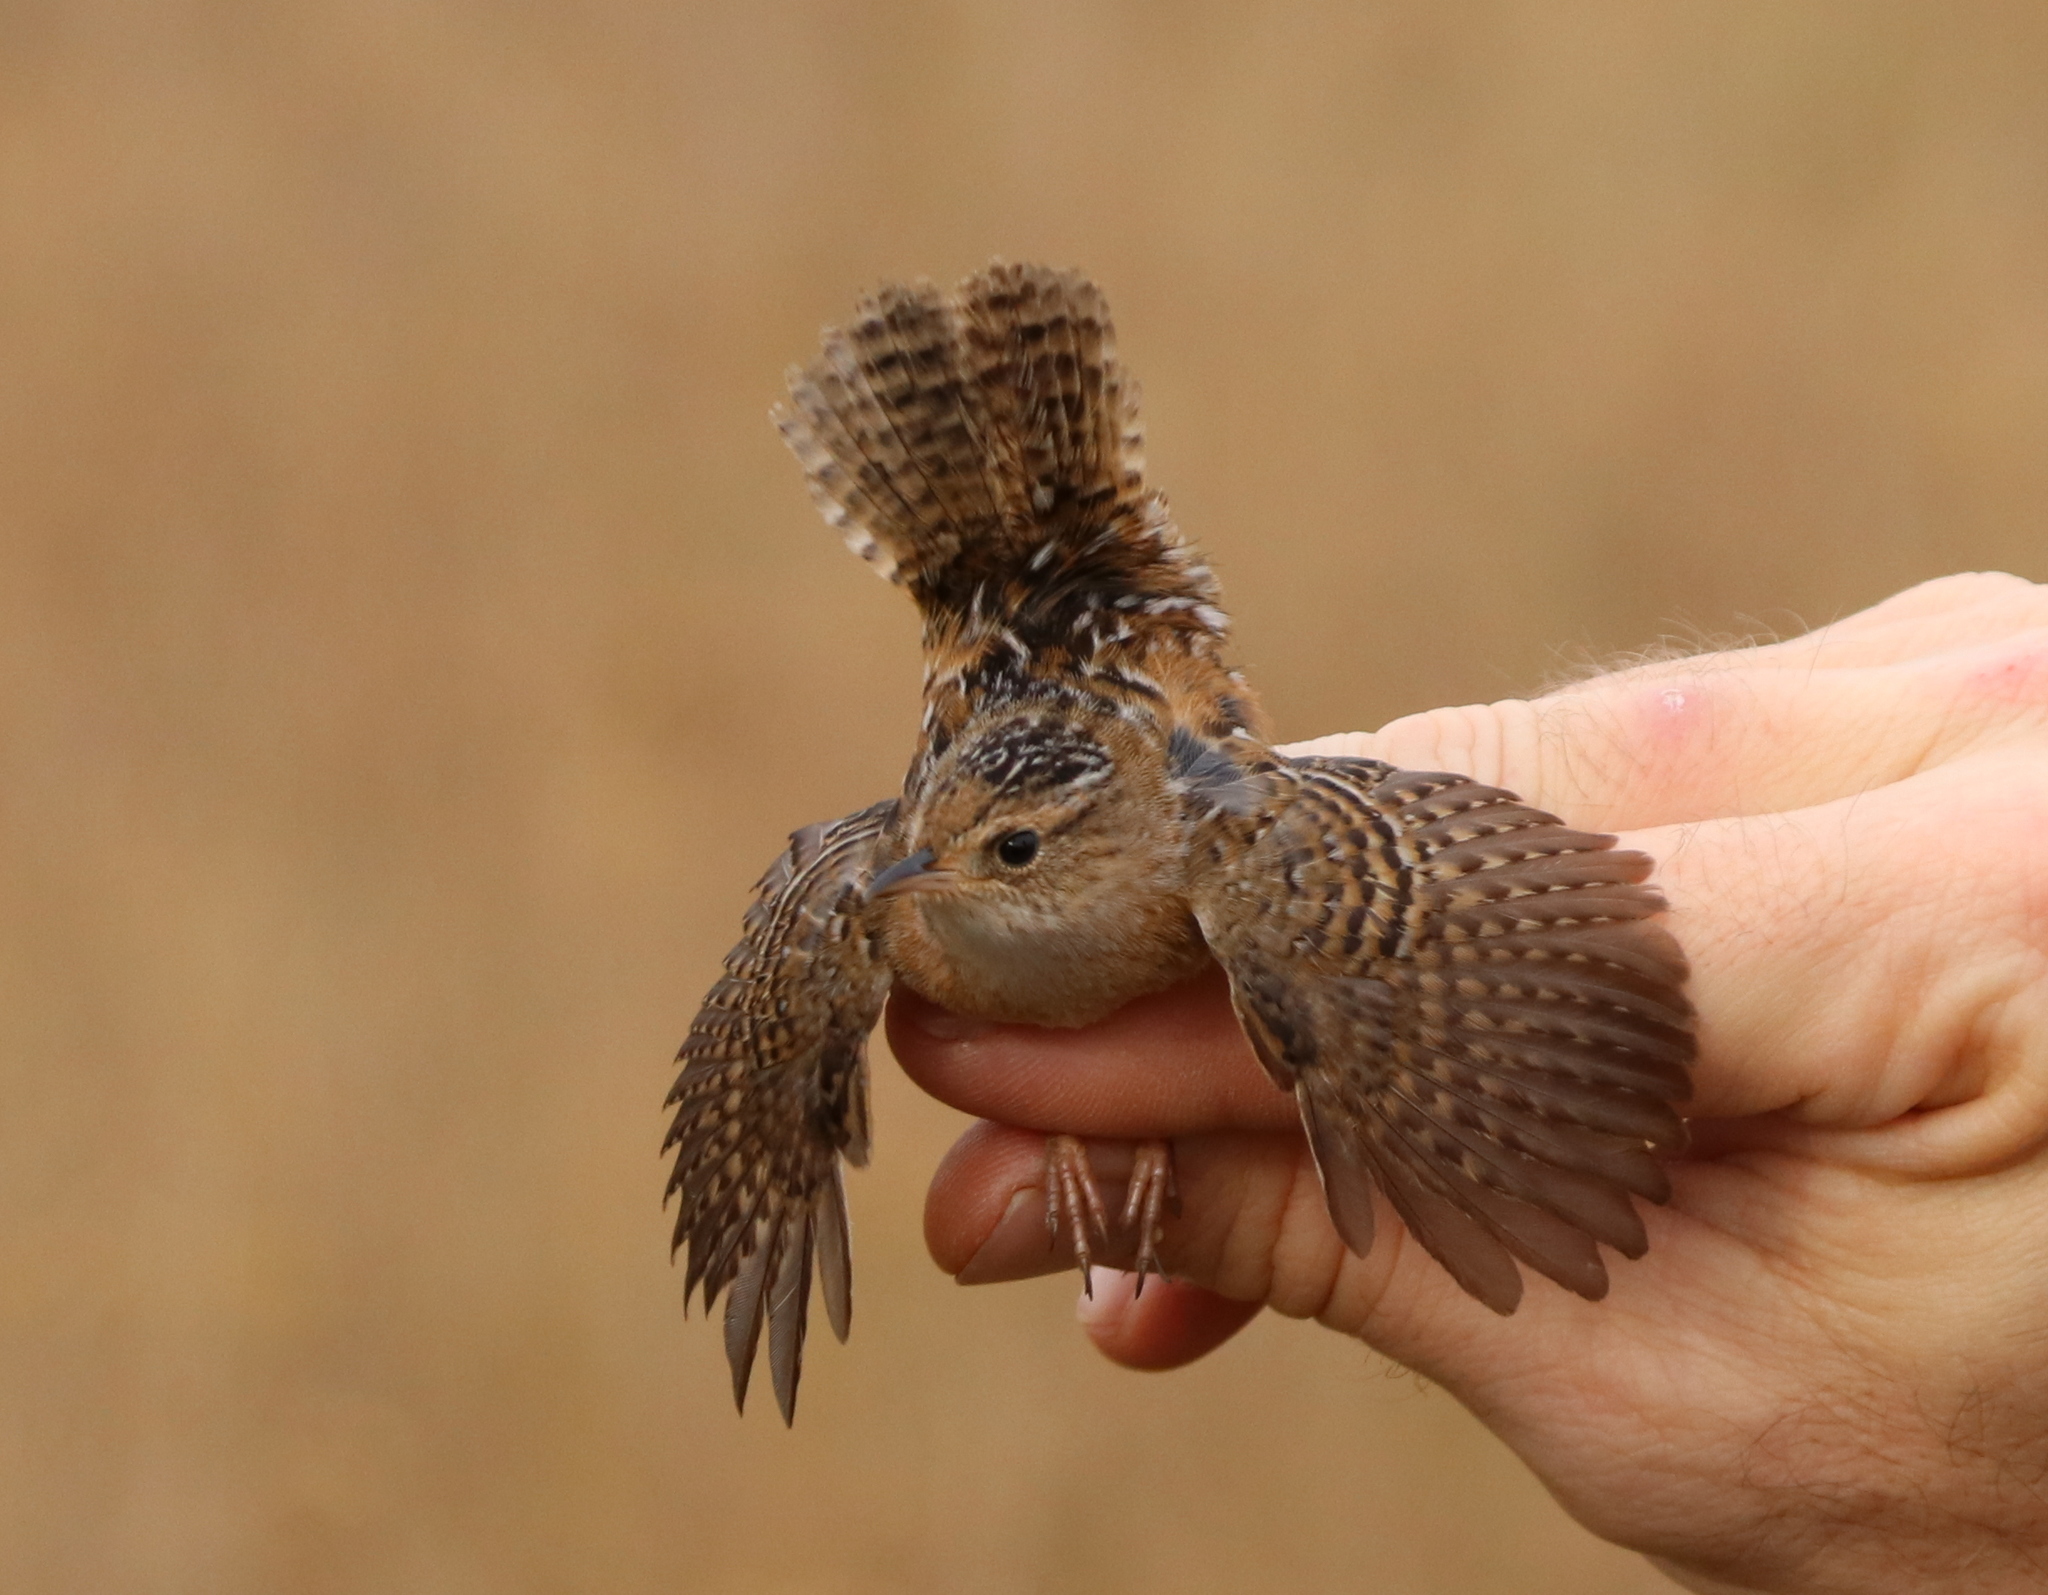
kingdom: Animalia
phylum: Chordata
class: Aves
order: Passeriformes
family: Troglodytidae
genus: Cistothorus
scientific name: Cistothorus platensis
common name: Sedge wren
